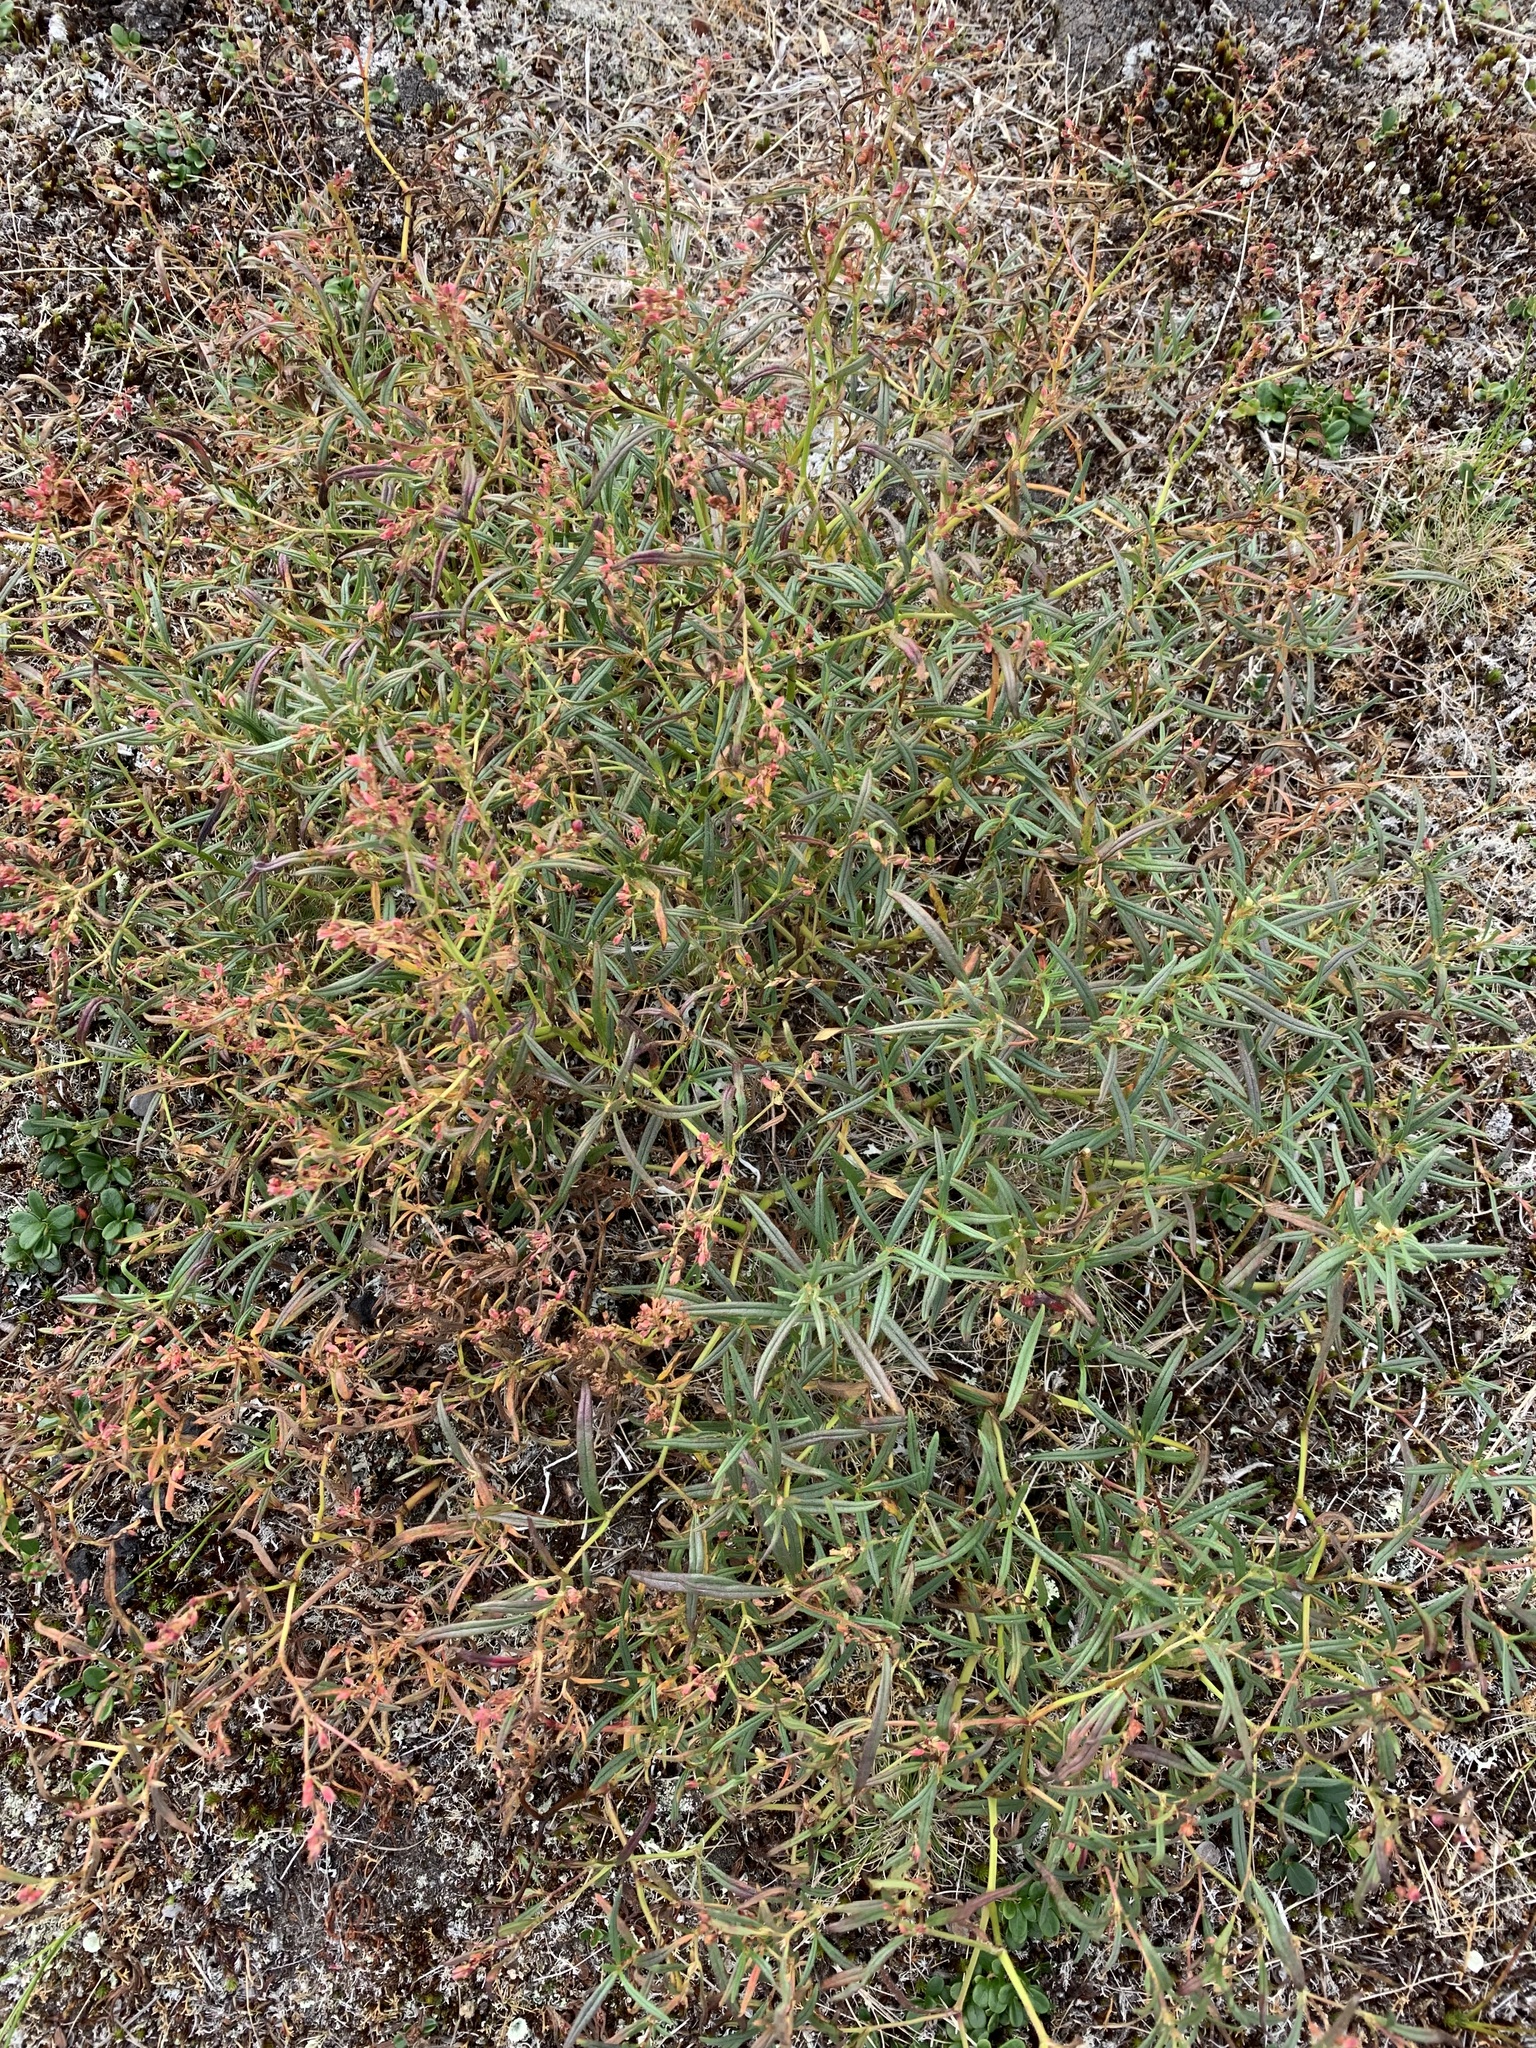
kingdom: Plantae
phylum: Tracheophyta
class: Magnoliopsida
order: Caryophyllales
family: Polygonaceae
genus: Koenigia
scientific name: Koenigia ocreata
